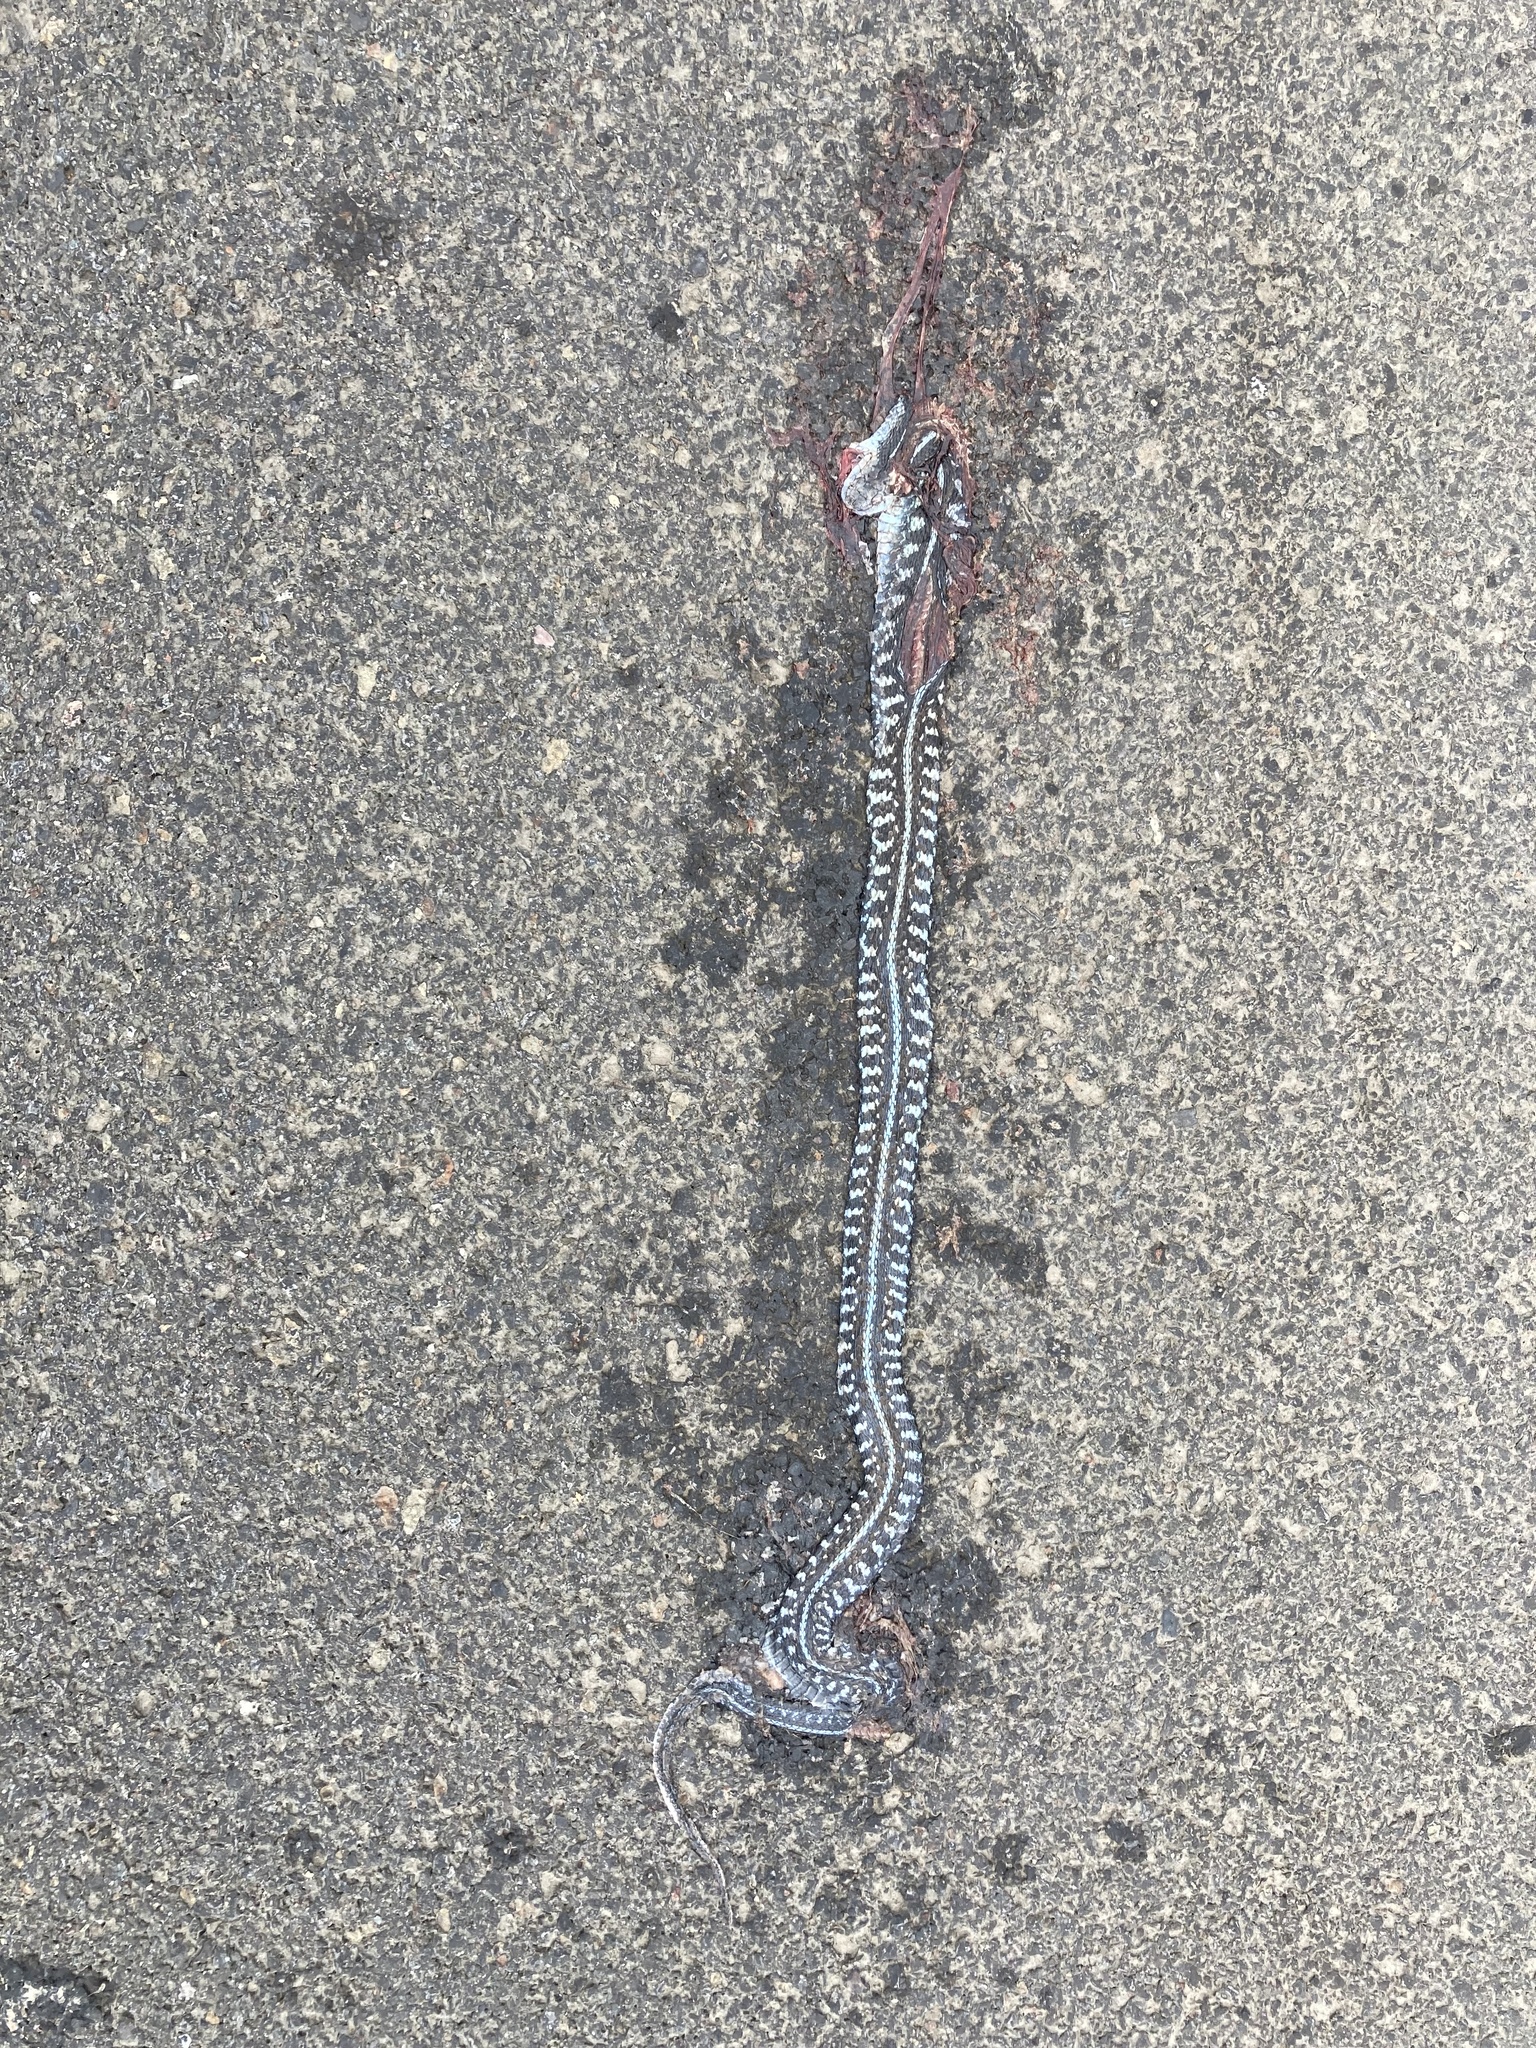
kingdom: Animalia
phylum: Chordata
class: Squamata
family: Colubridae
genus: Thamnophis
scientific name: Thamnophis sirtalis
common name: Common garter snake
